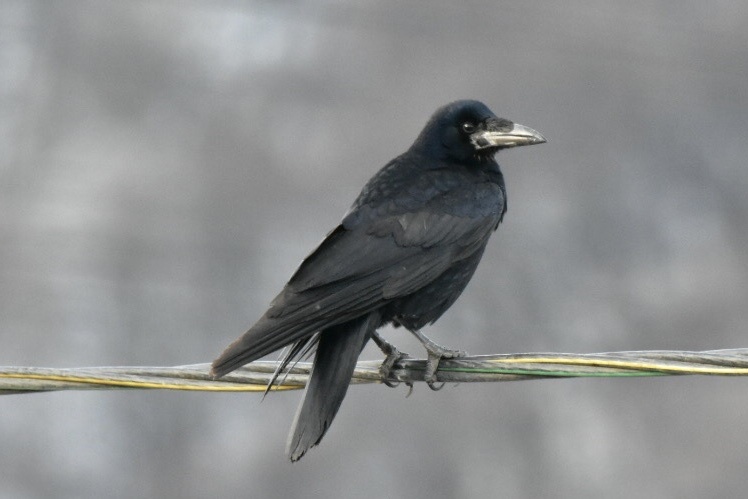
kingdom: Animalia
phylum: Chordata
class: Aves
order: Passeriformes
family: Corvidae
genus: Corvus
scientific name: Corvus frugilegus
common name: Rook
